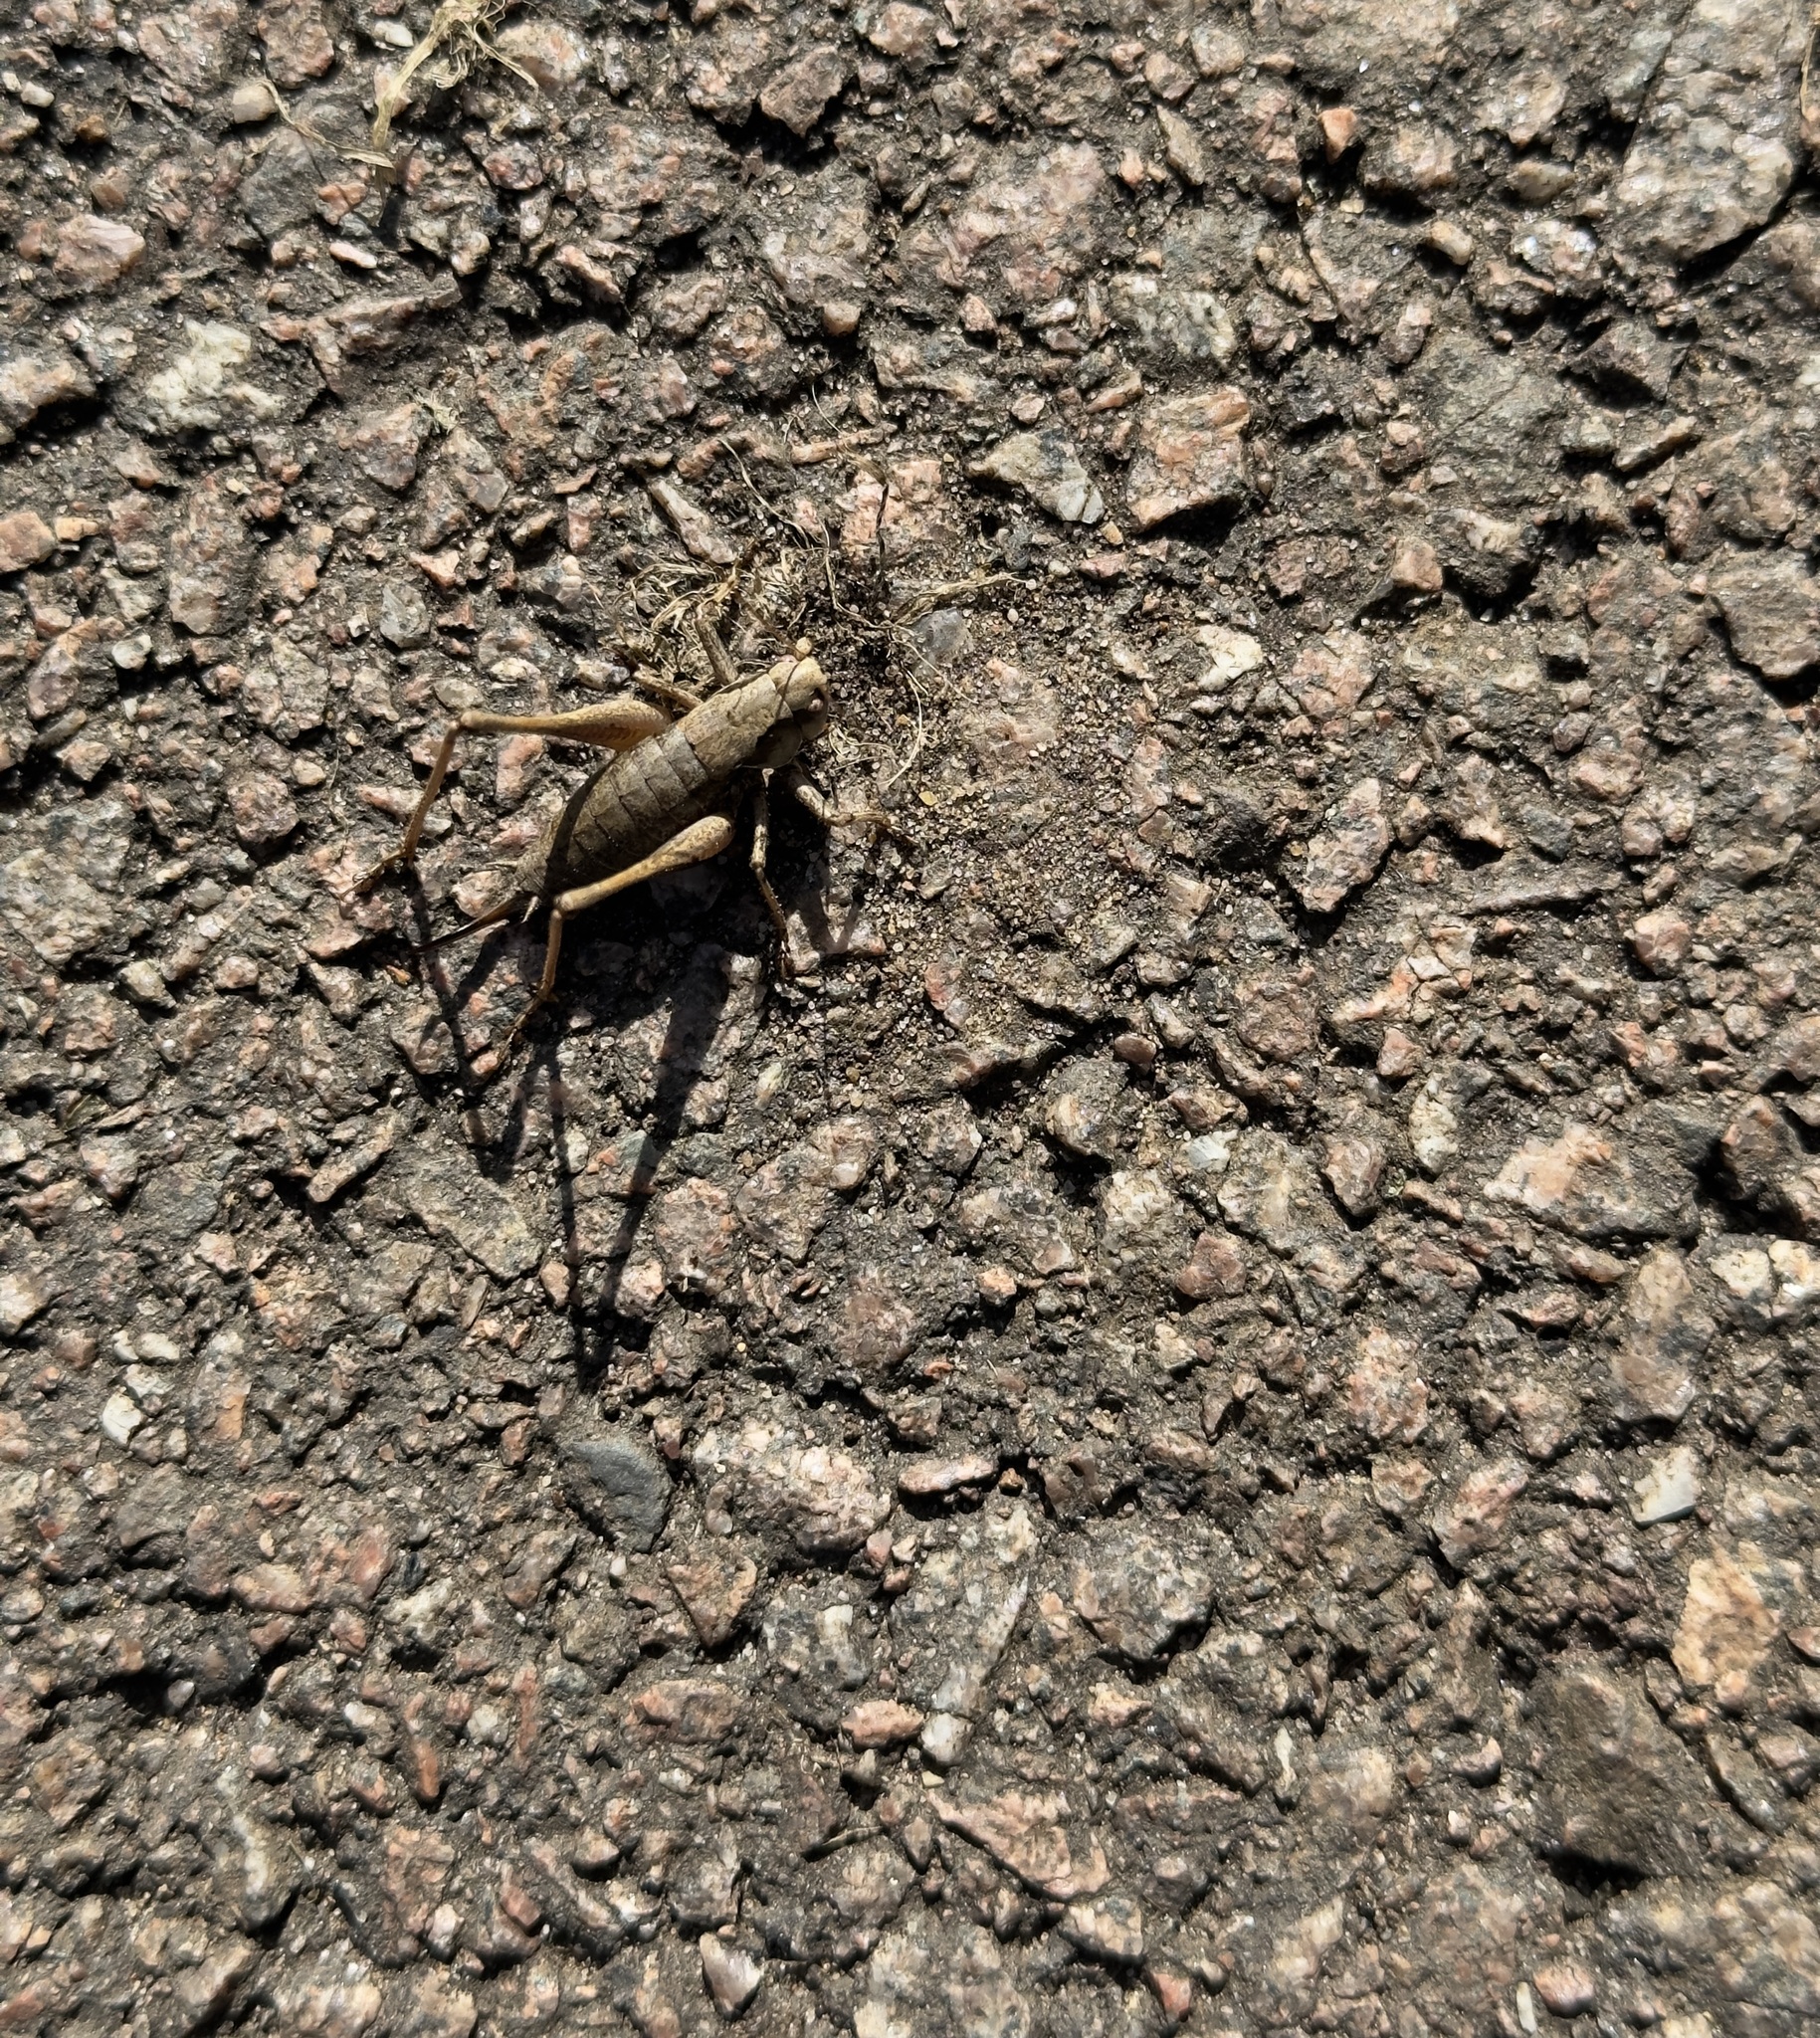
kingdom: Animalia
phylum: Arthropoda
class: Insecta
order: Orthoptera
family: Tettigoniidae
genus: Pholidoptera
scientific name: Pholidoptera griseoaptera
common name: Dark bush-cricket
